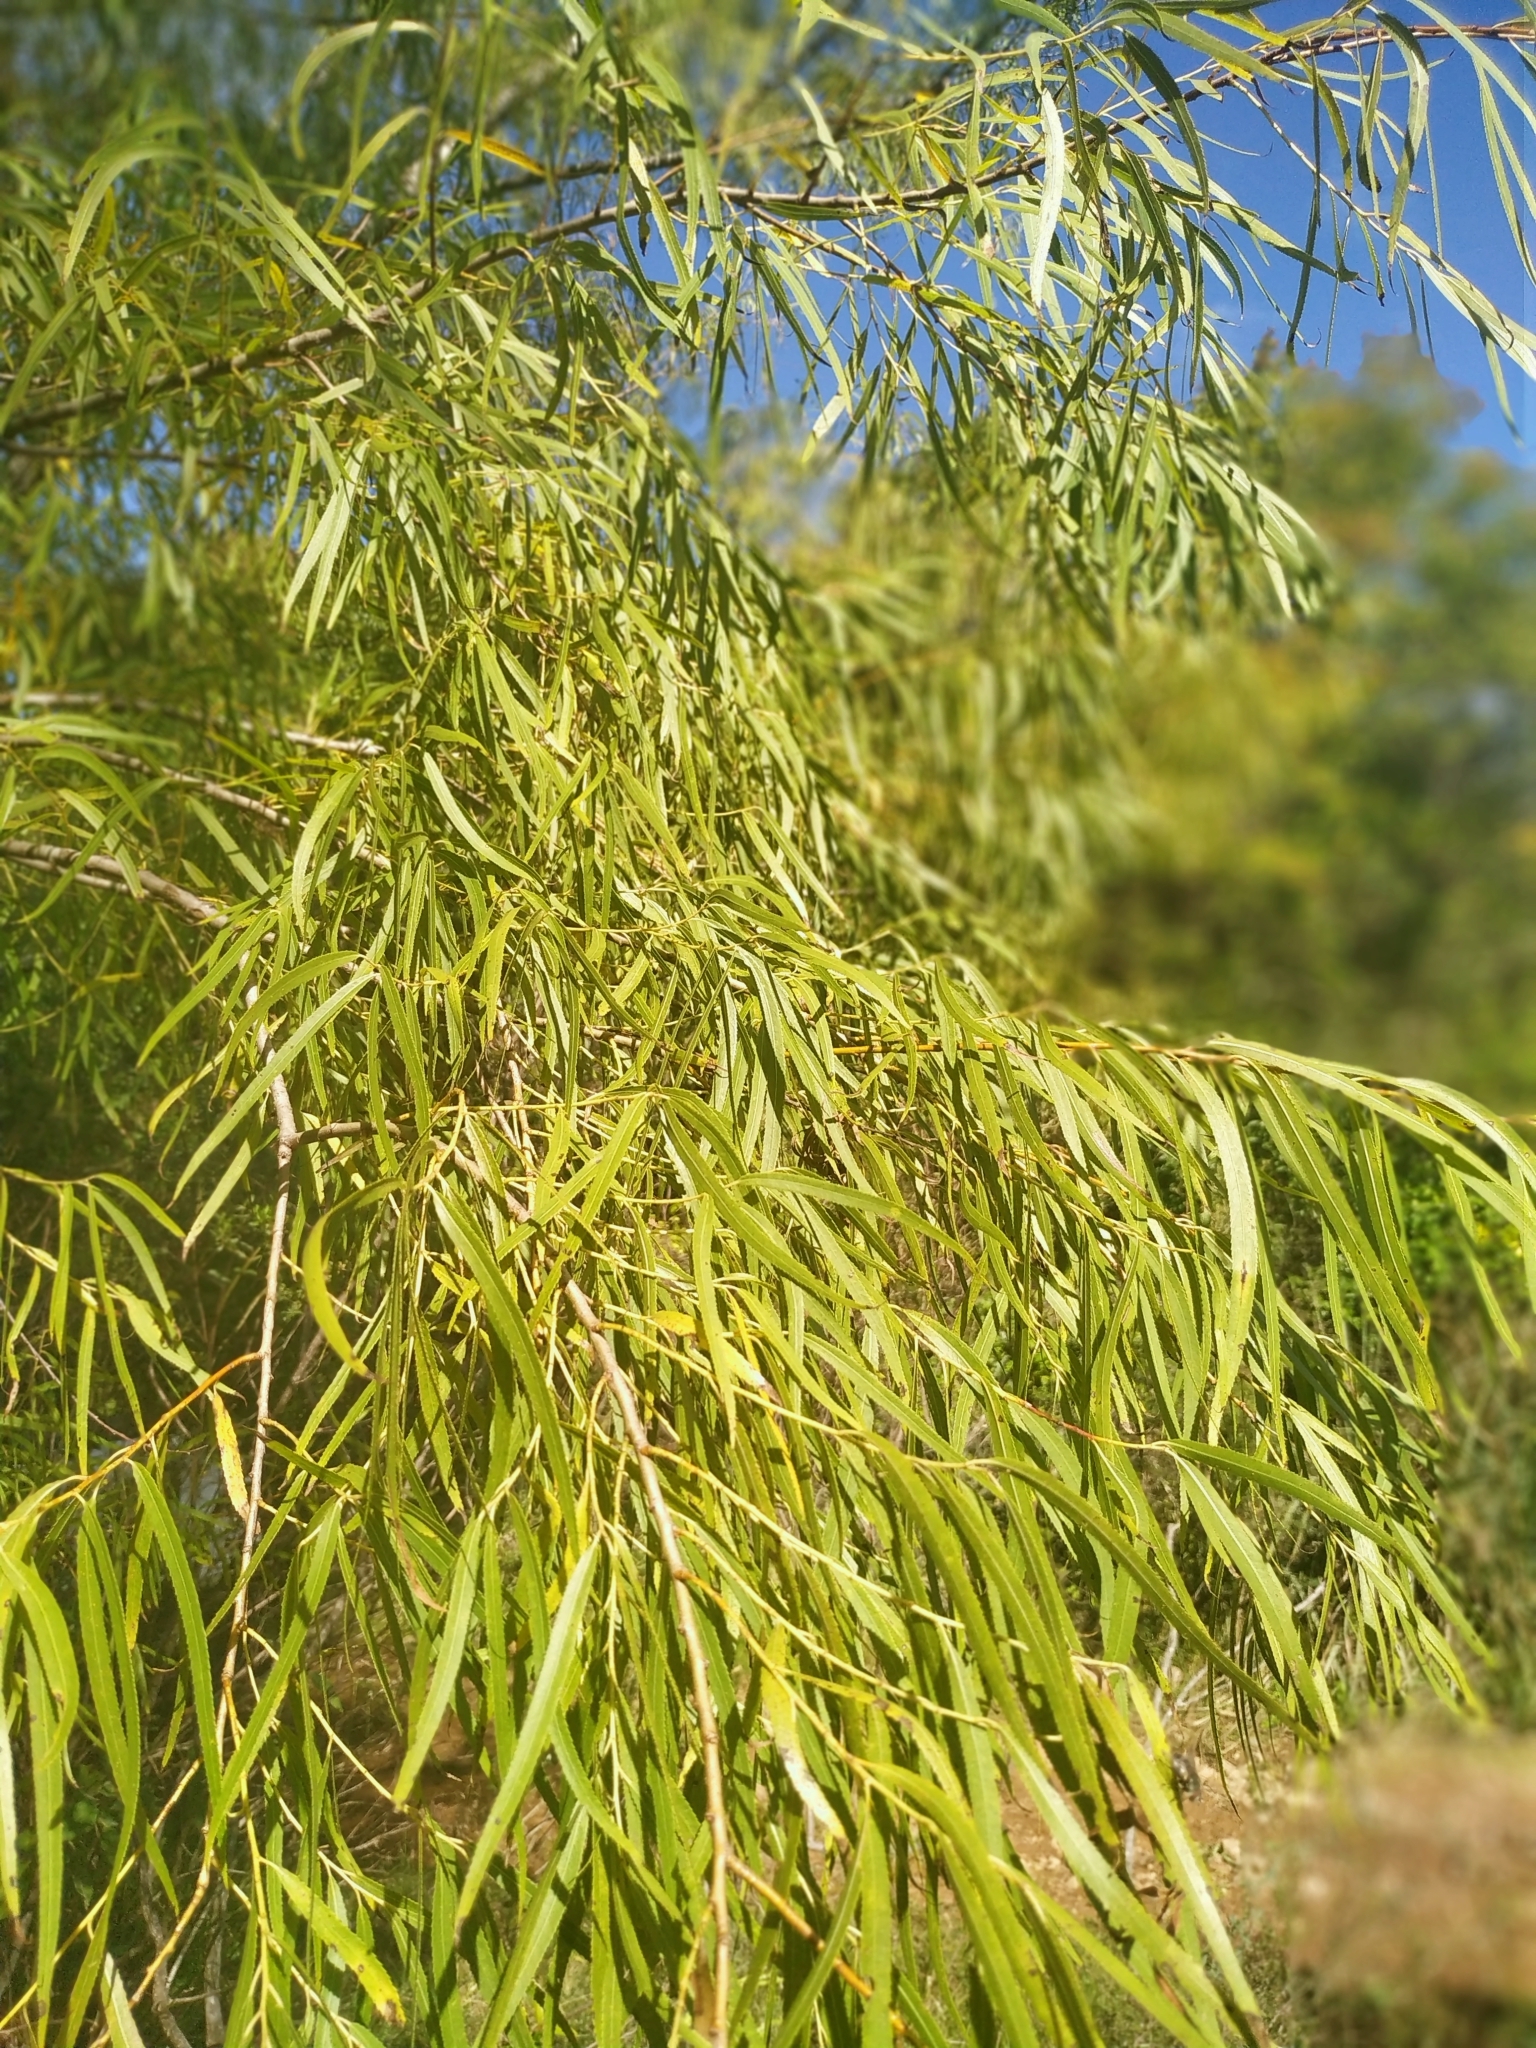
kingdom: Plantae
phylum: Tracheophyta
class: Magnoliopsida
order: Malpighiales
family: Salicaceae
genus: Salix
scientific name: Salix humboldtiana
